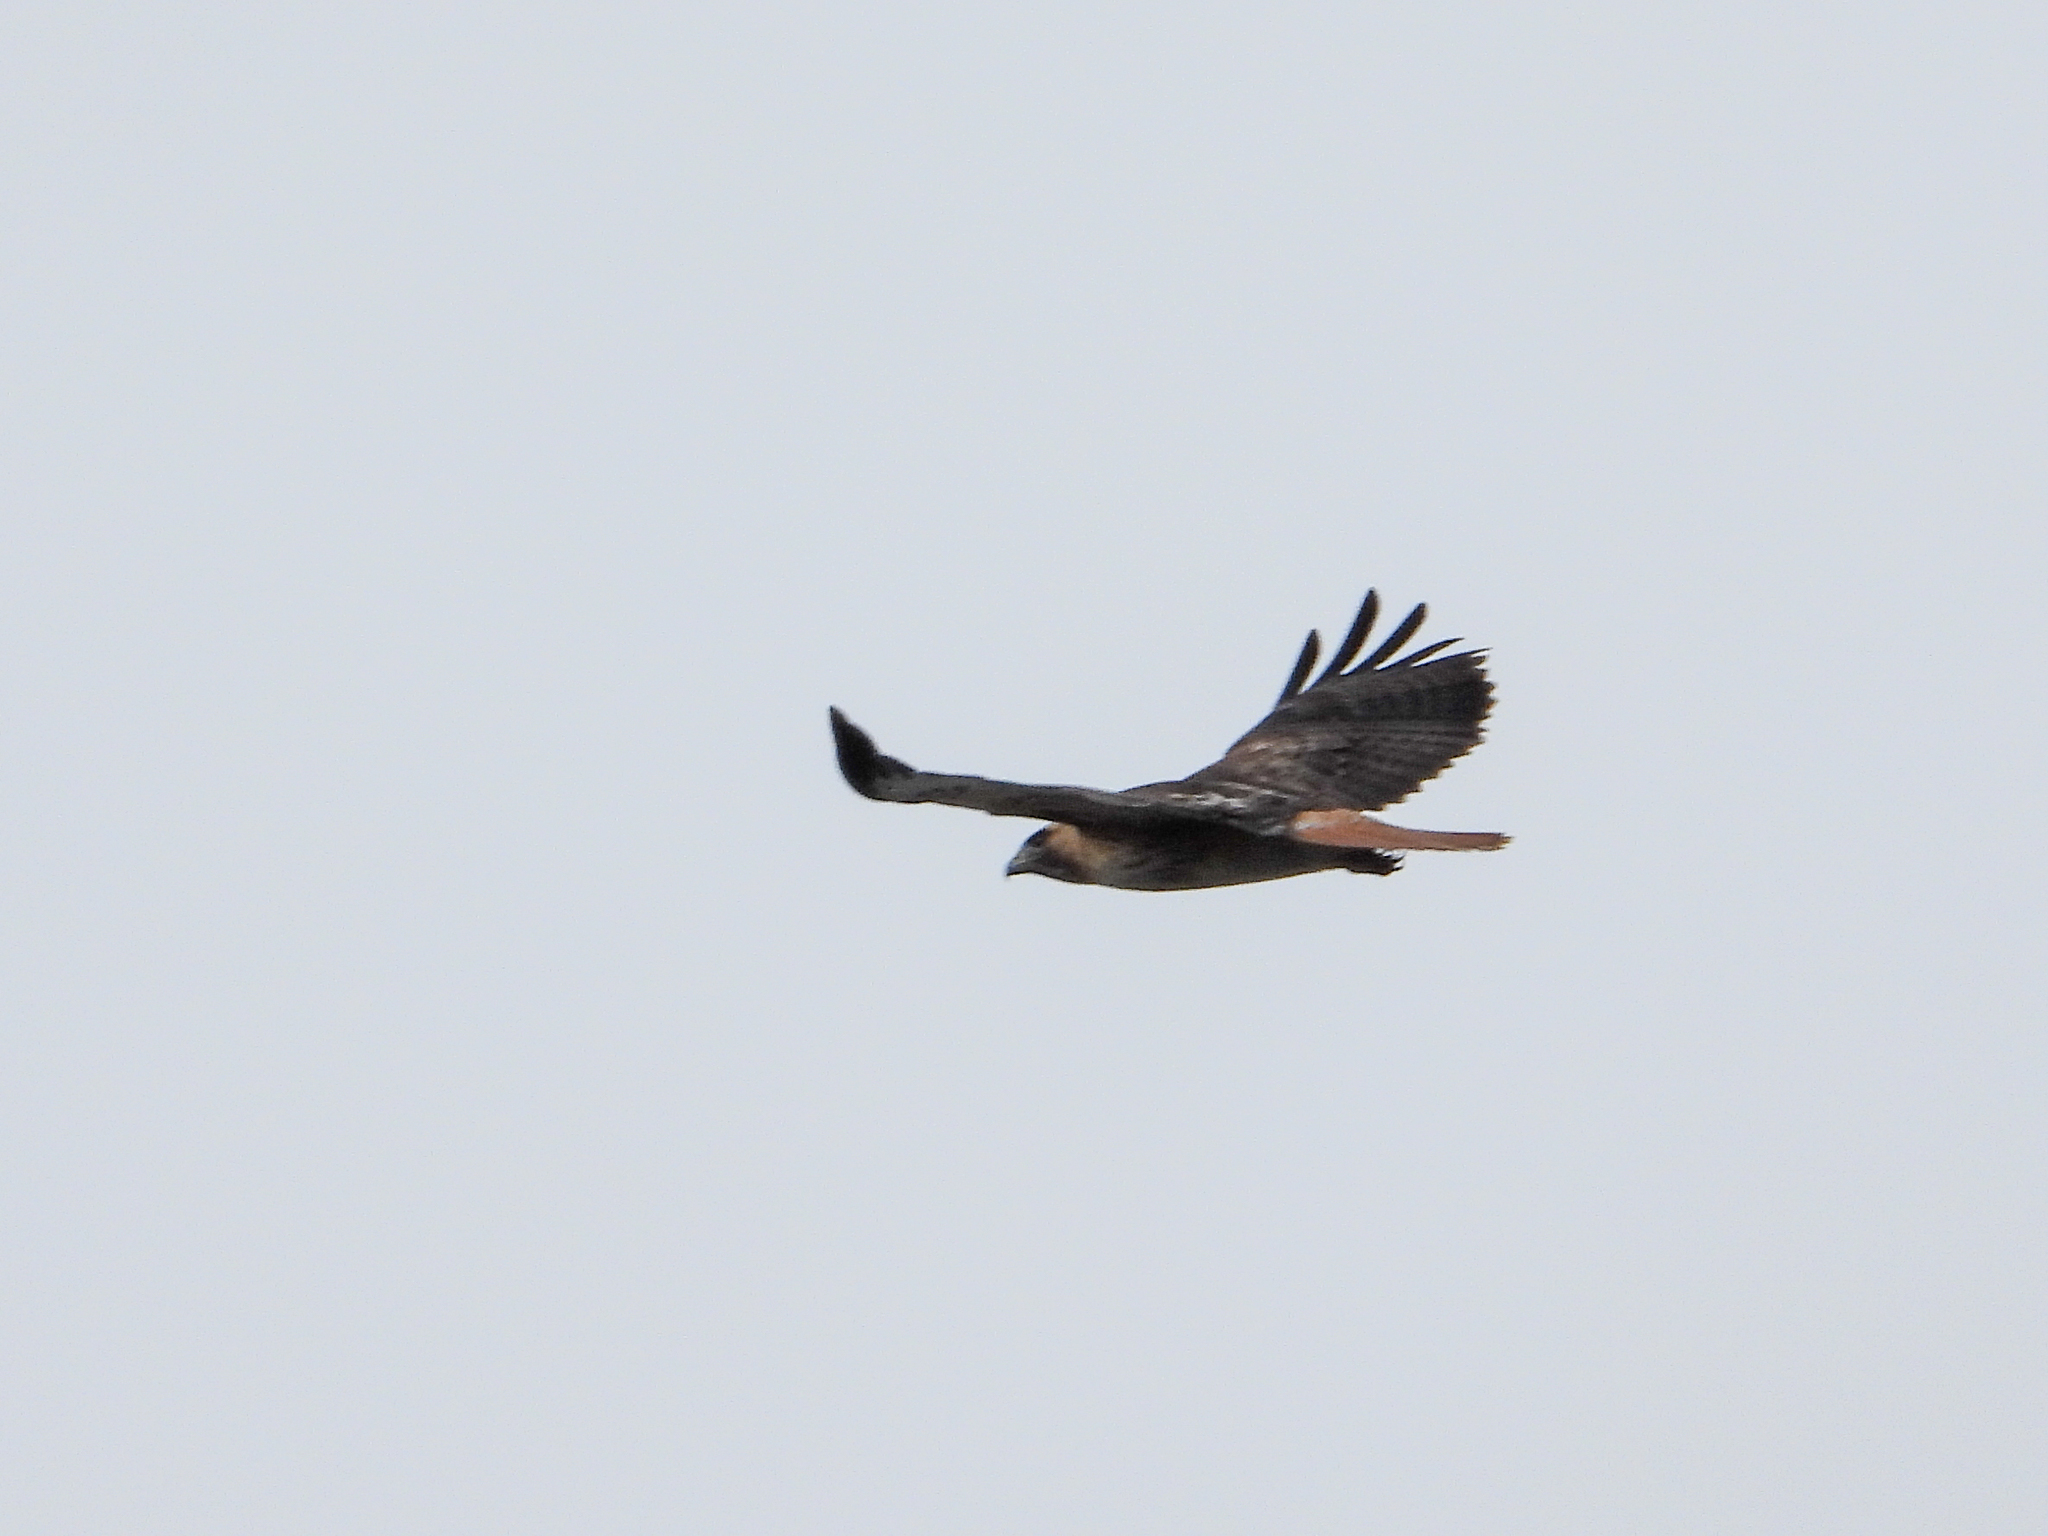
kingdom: Animalia
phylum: Chordata
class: Aves
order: Accipitriformes
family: Accipitridae
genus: Buteo
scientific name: Buteo jamaicensis
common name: Red-tailed hawk
